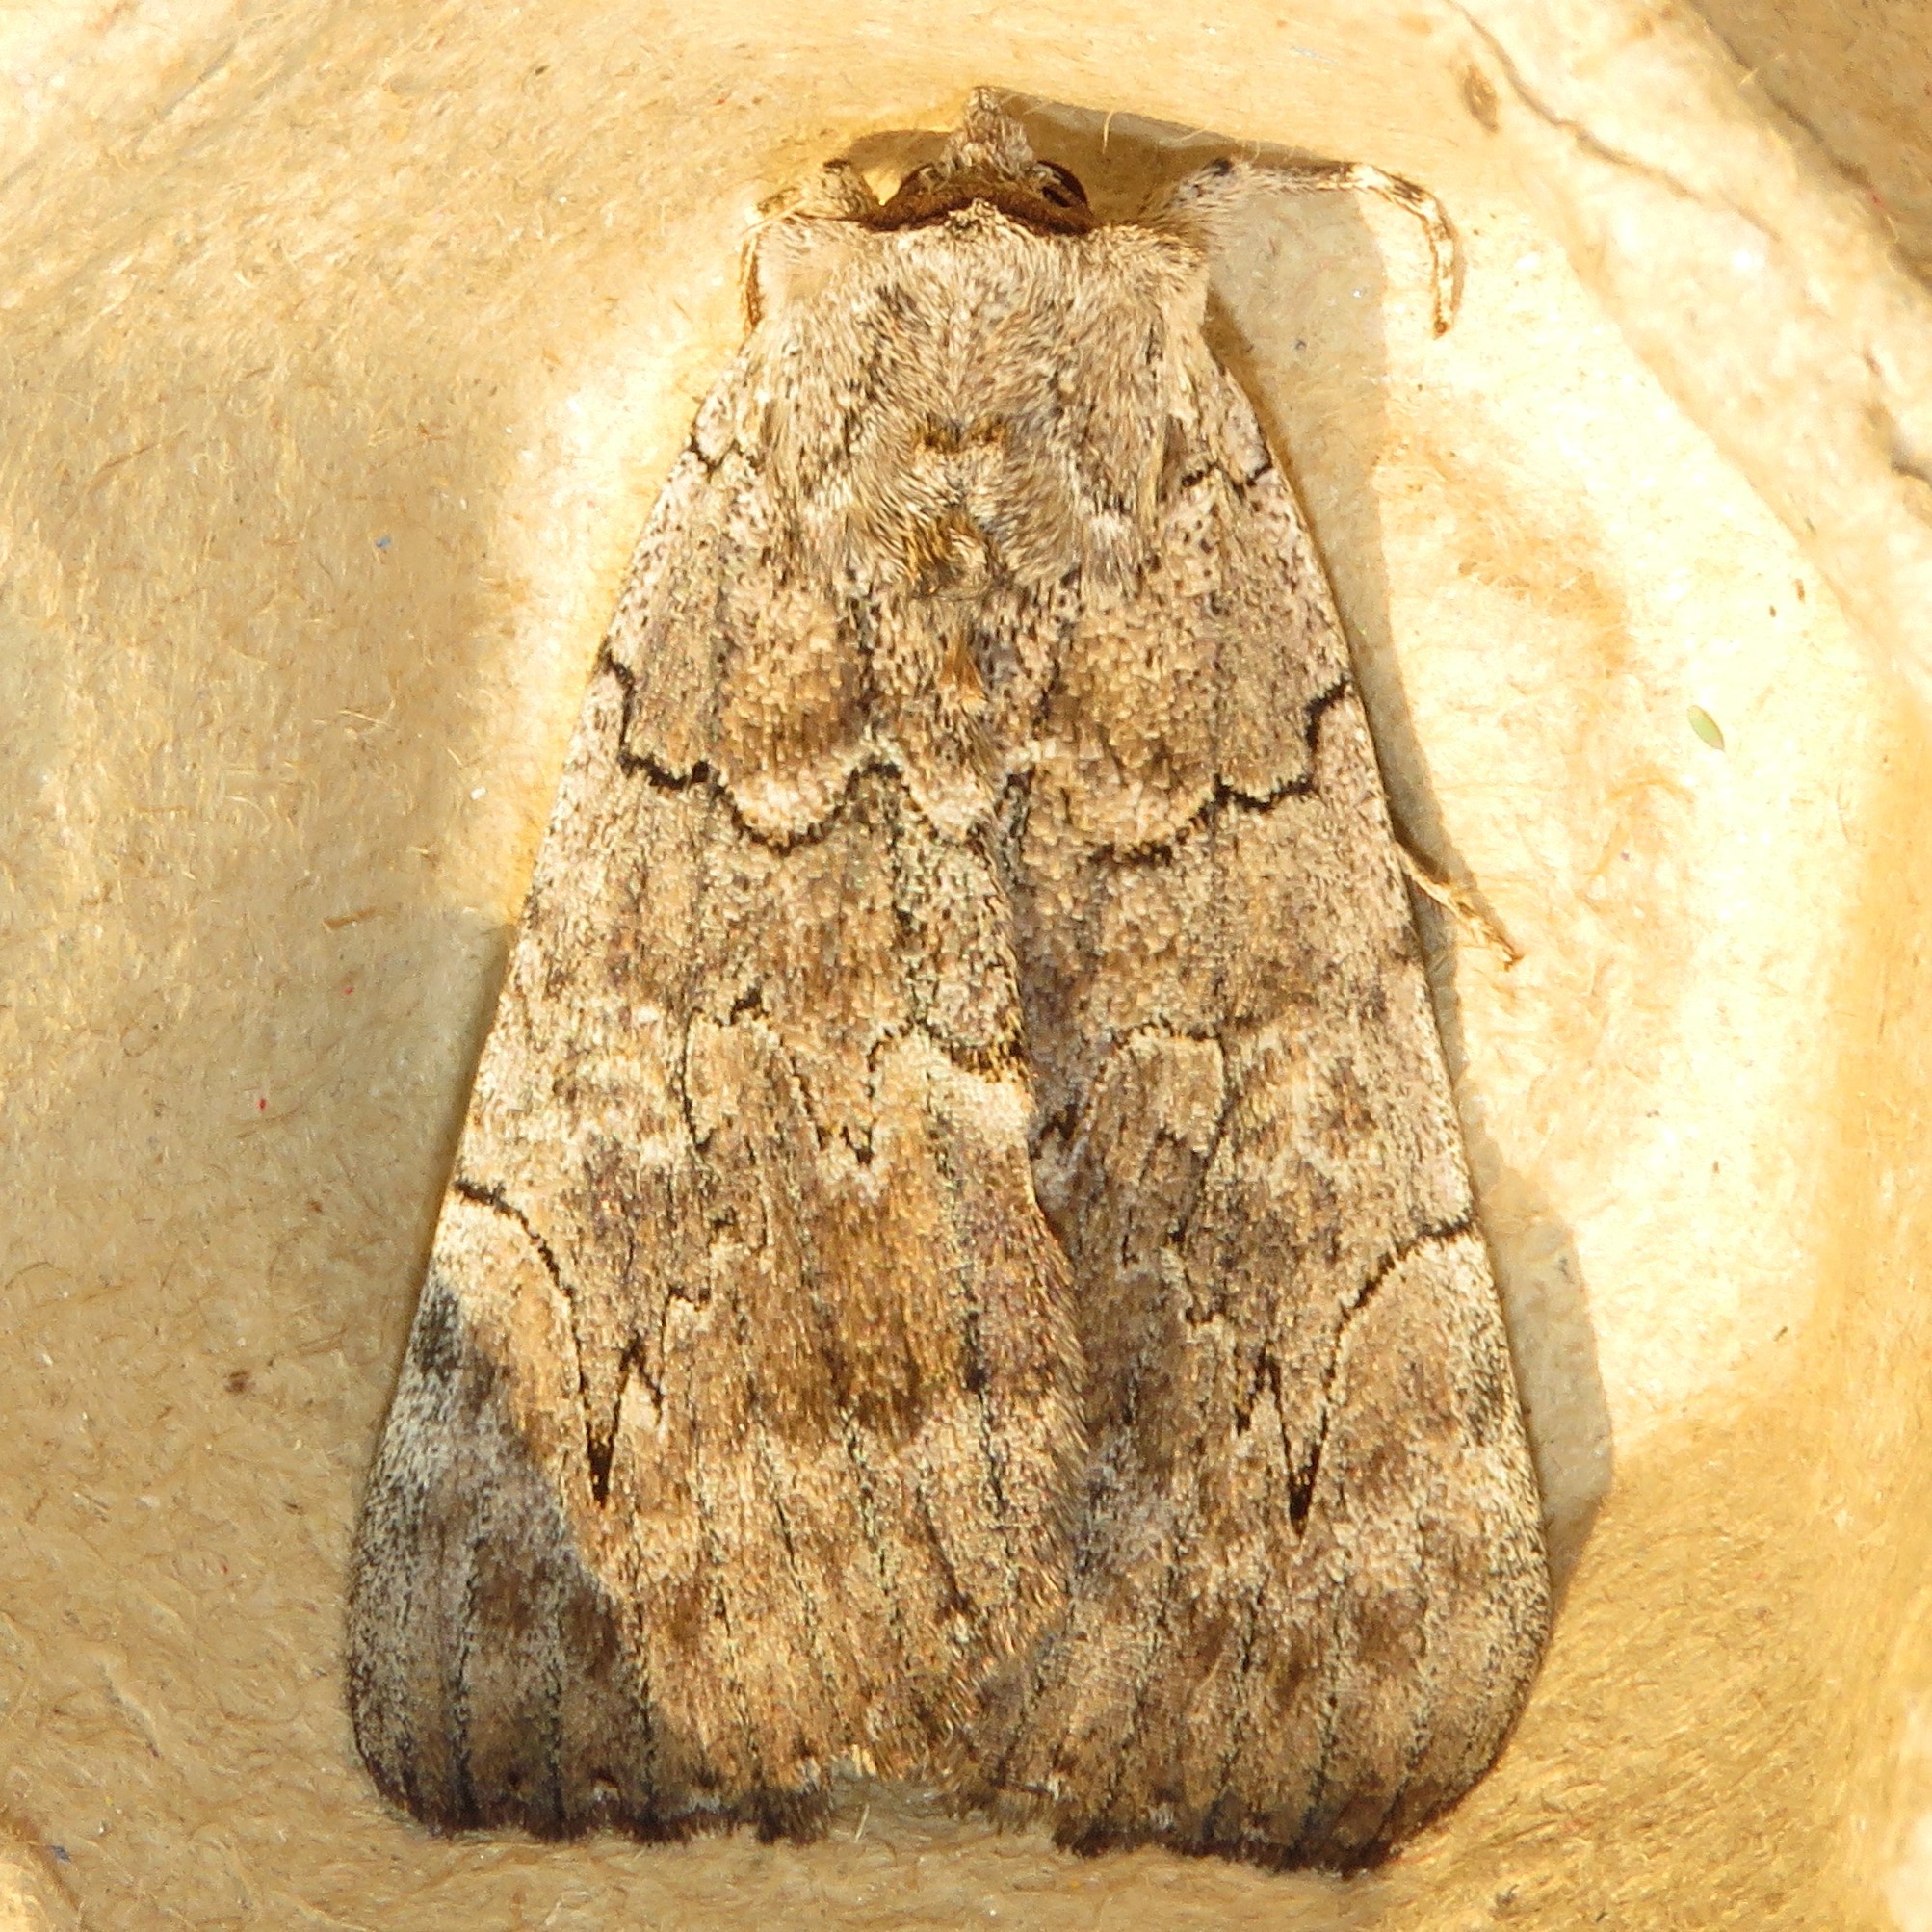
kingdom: Animalia
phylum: Arthropoda
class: Insecta
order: Lepidoptera
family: Erebidae
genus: Catocala
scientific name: Catocala concumbens
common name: Pink underwing
